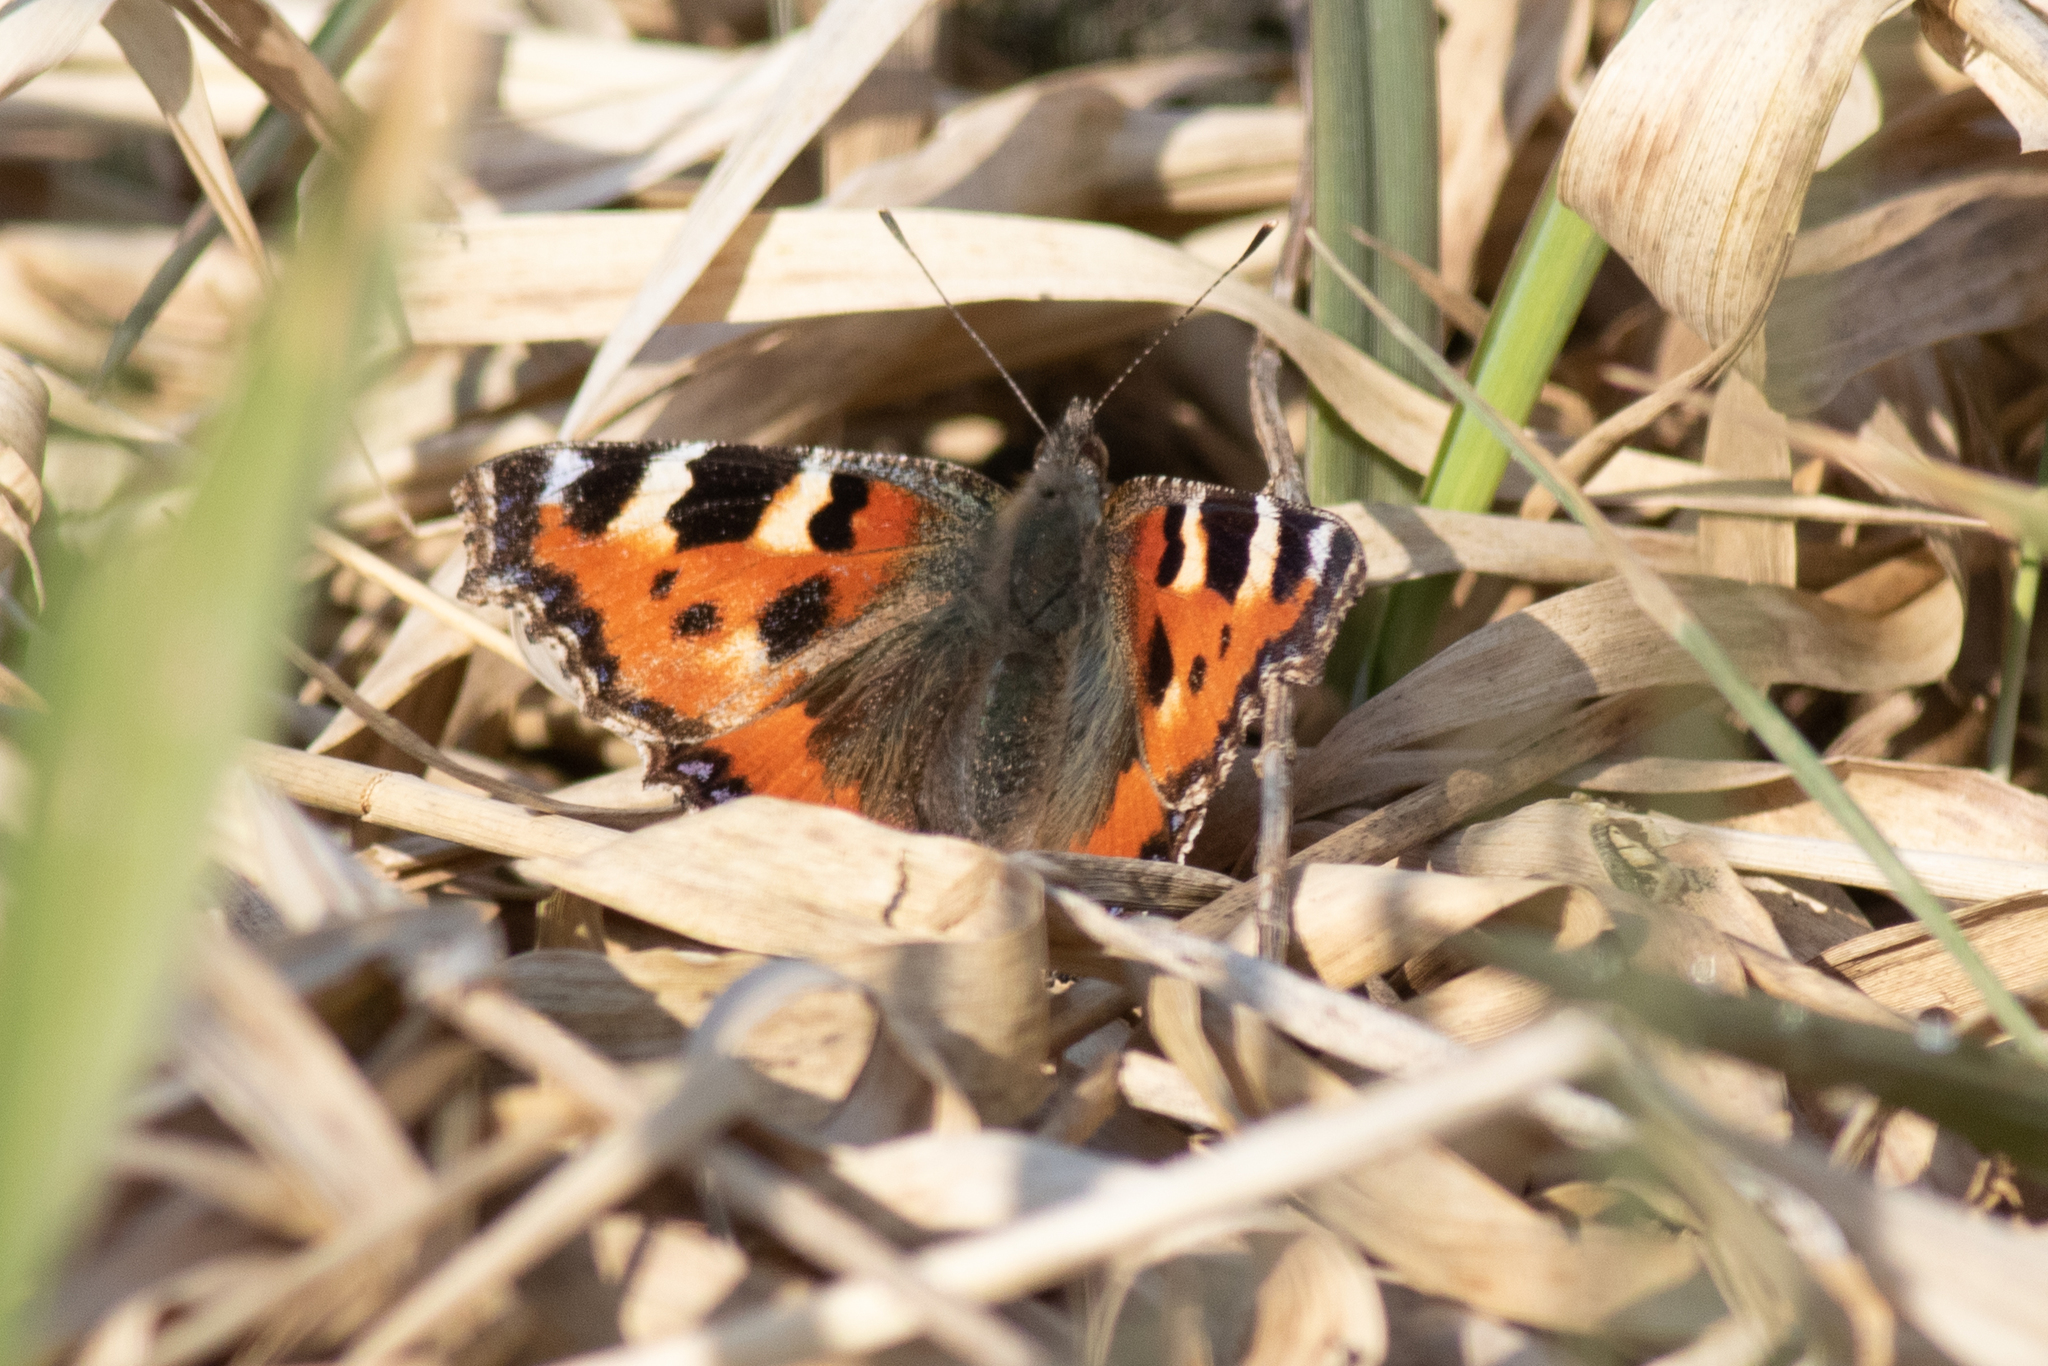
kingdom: Animalia
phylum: Arthropoda
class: Insecta
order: Lepidoptera
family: Nymphalidae
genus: Aglais
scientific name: Aglais urticae
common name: Small tortoiseshell
